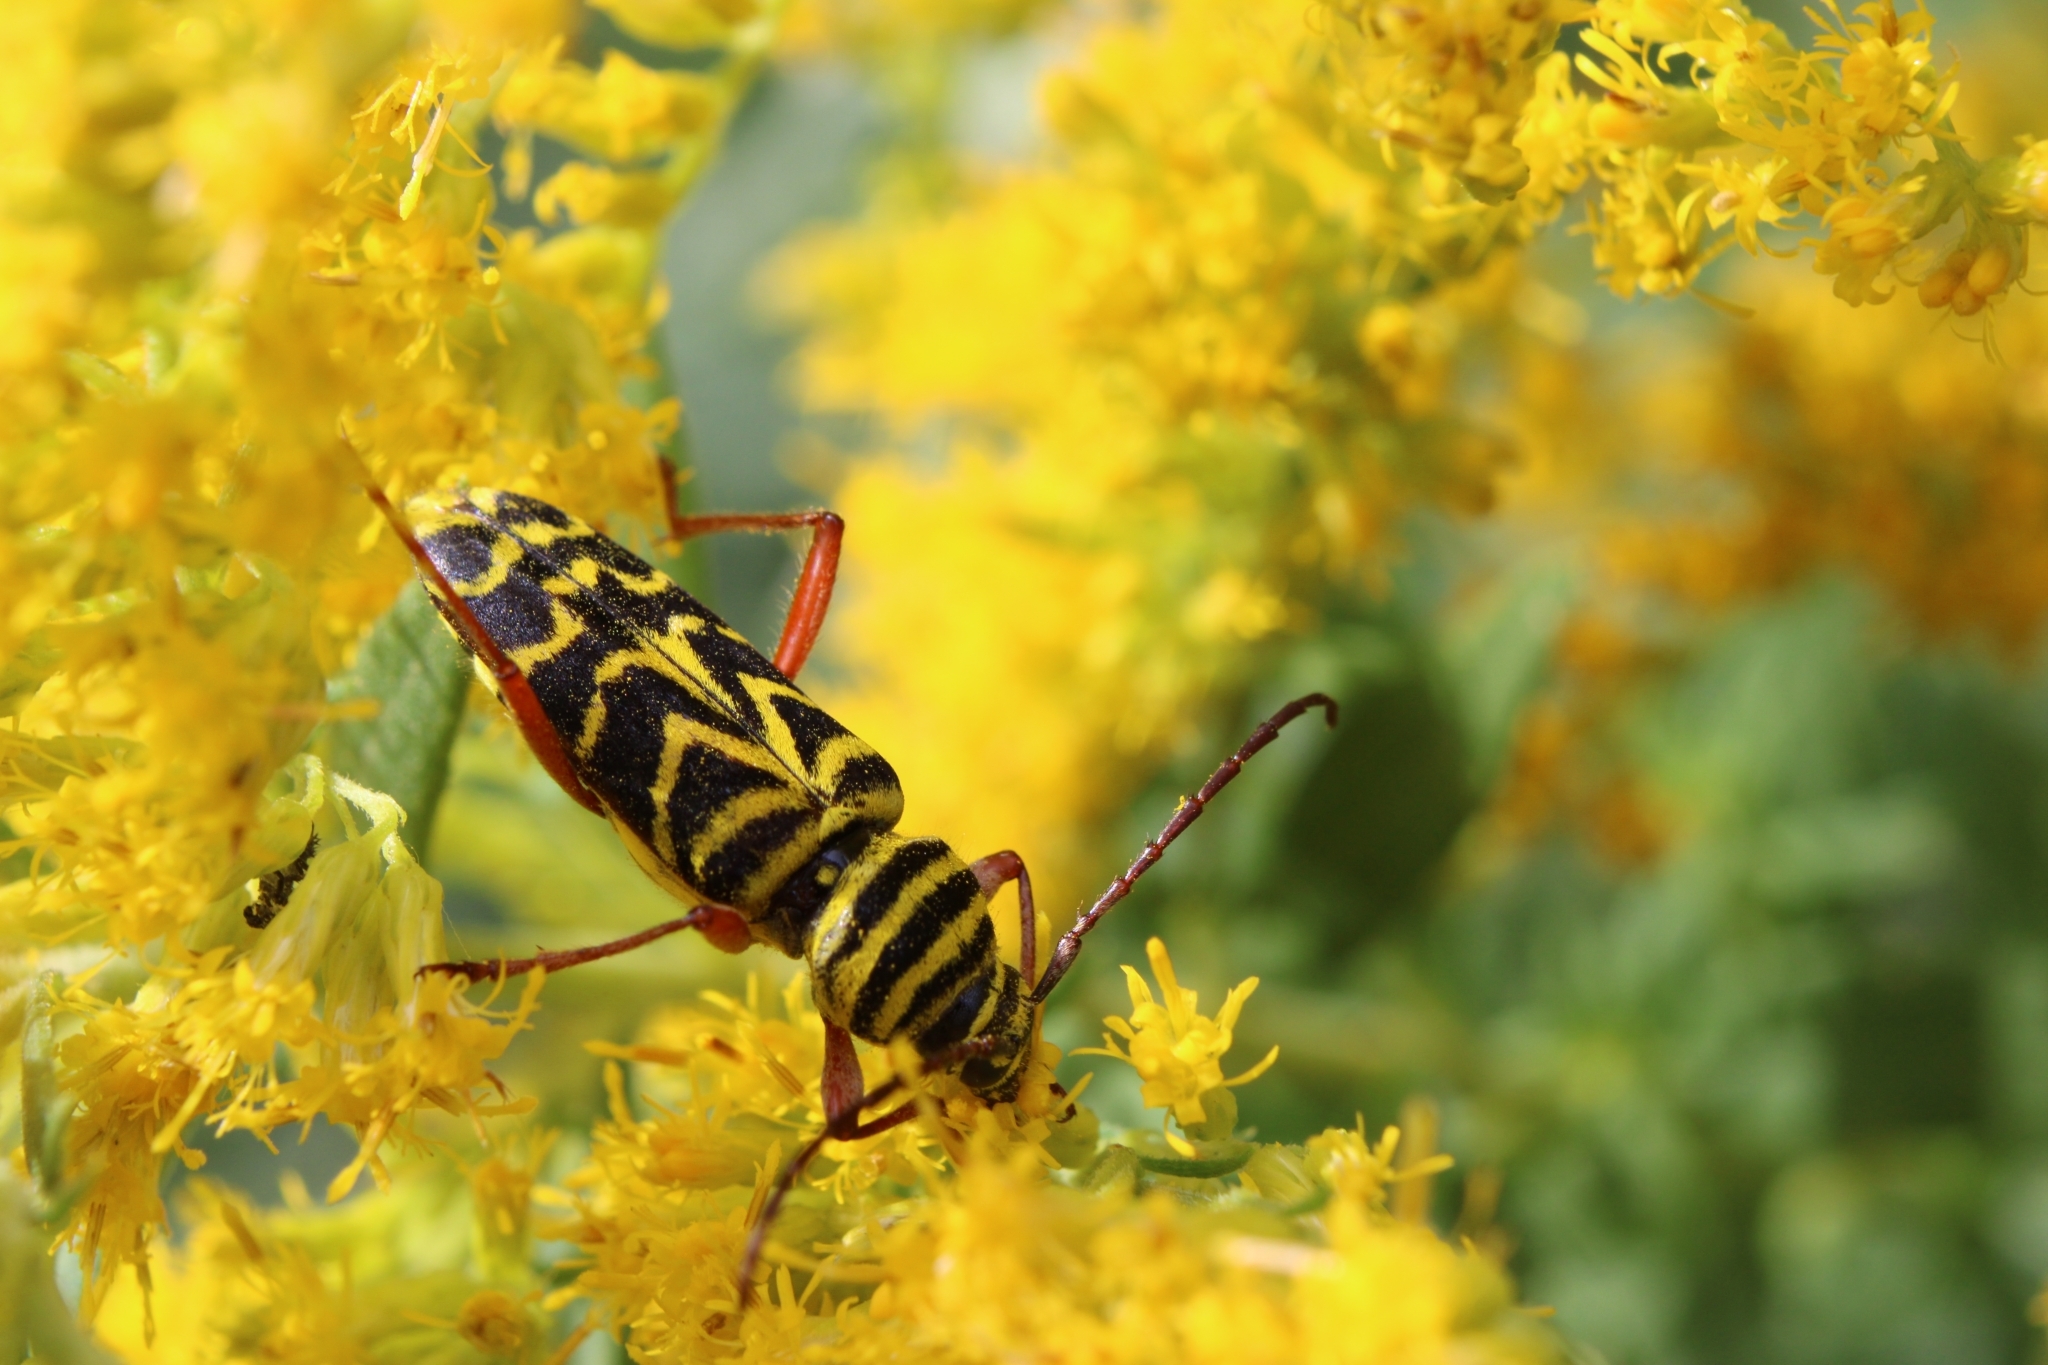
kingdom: Animalia
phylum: Arthropoda
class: Insecta
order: Coleoptera
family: Cerambycidae
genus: Megacyllene
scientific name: Megacyllene robiniae
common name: Locust borer
